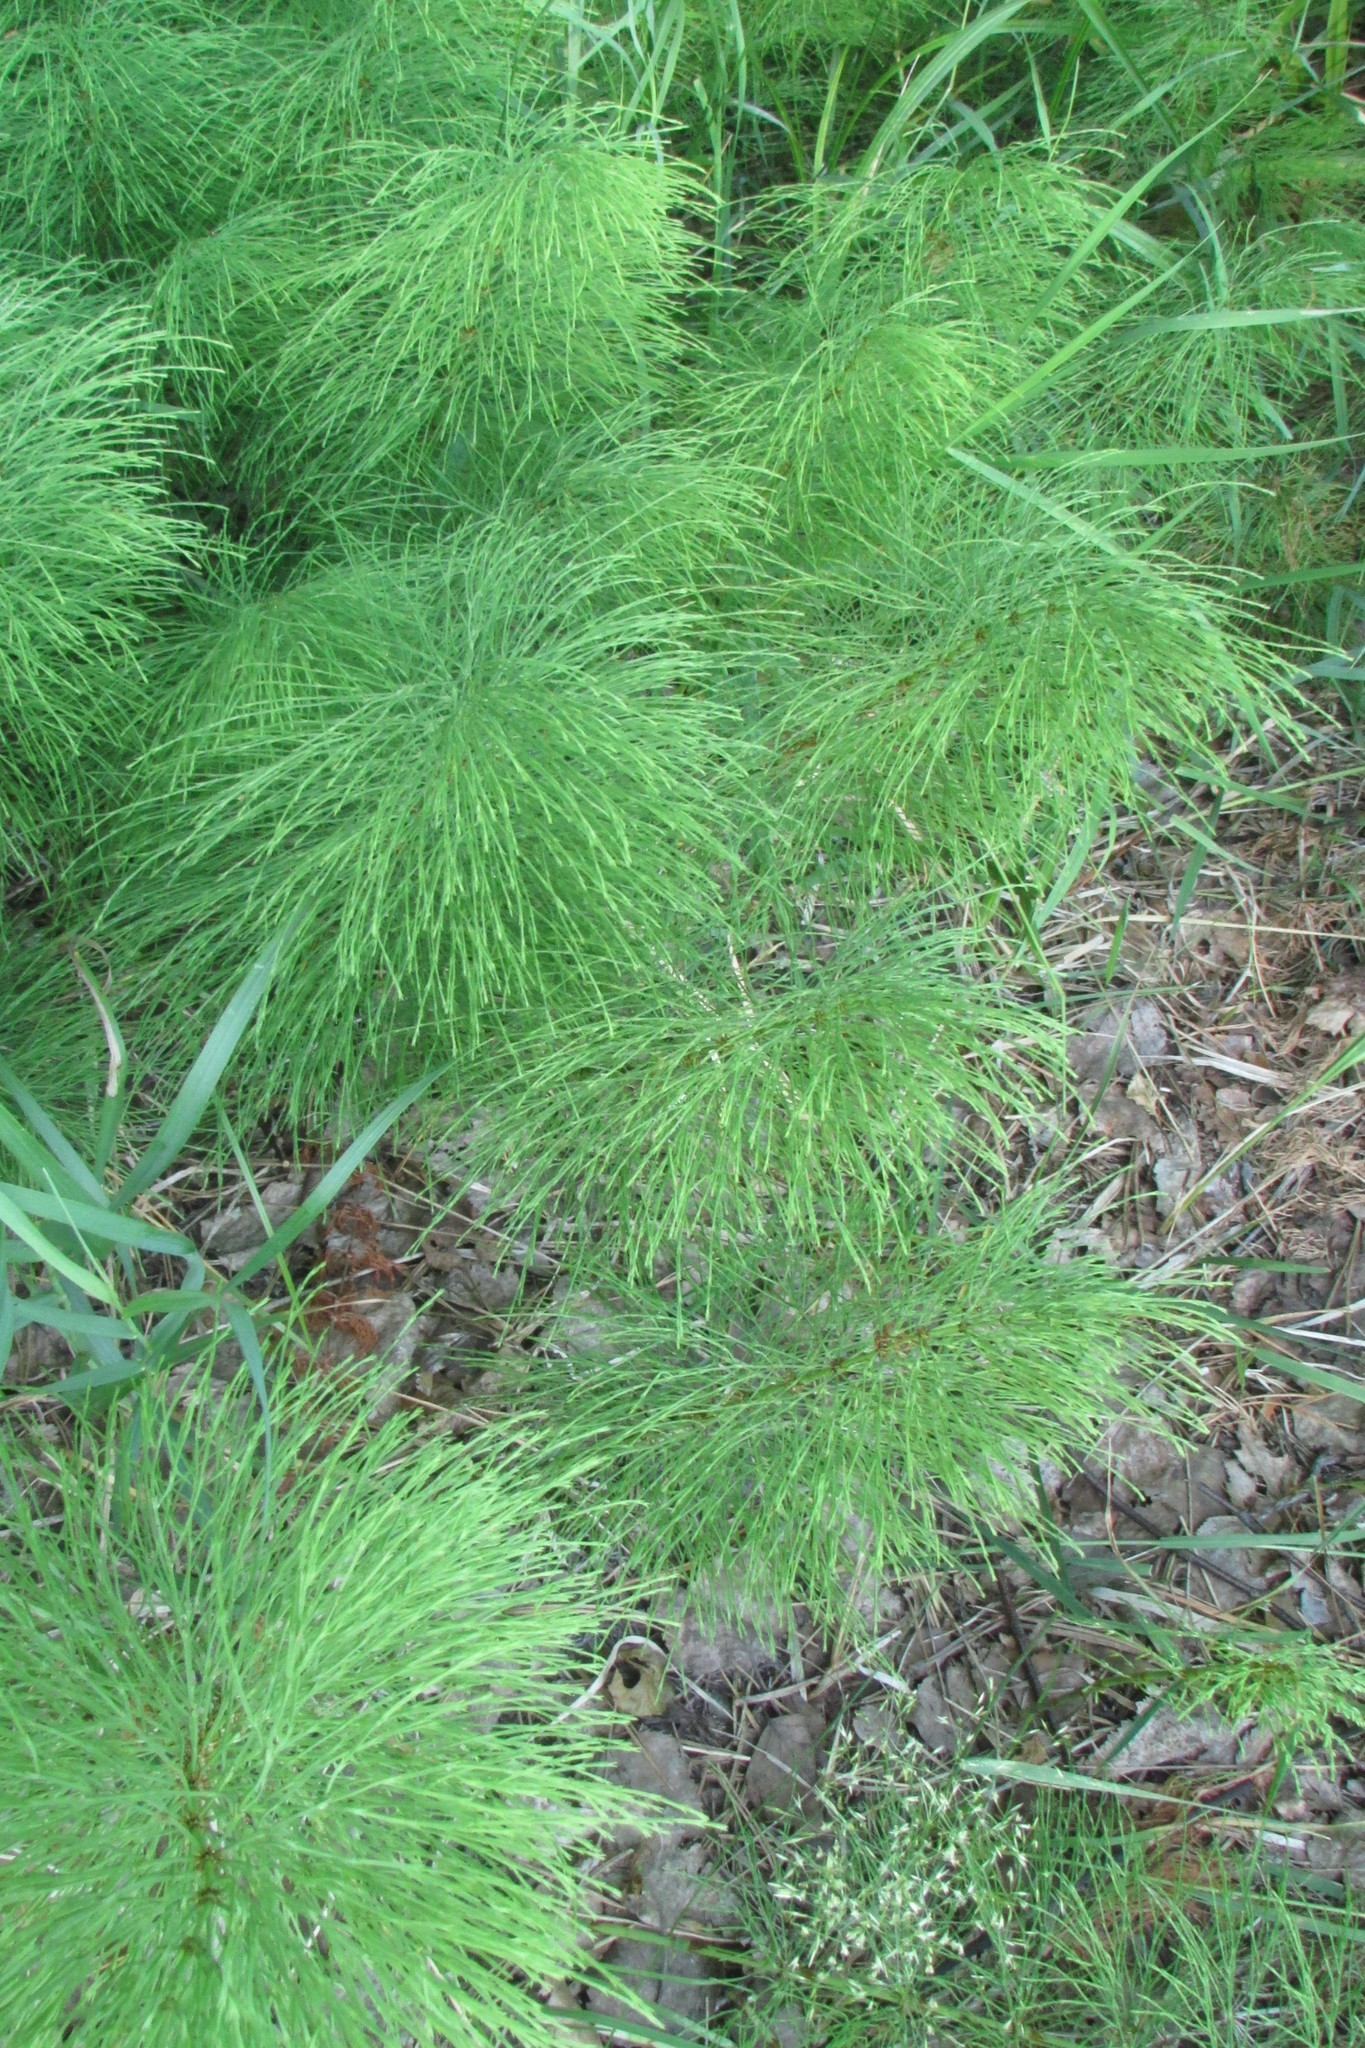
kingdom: Plantae
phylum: Tracheophyta
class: Polypodiopsida
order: Equisetales
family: Equisetaceae
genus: Equisetum
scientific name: Equisetum sylvaticum
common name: Wood horsetail
